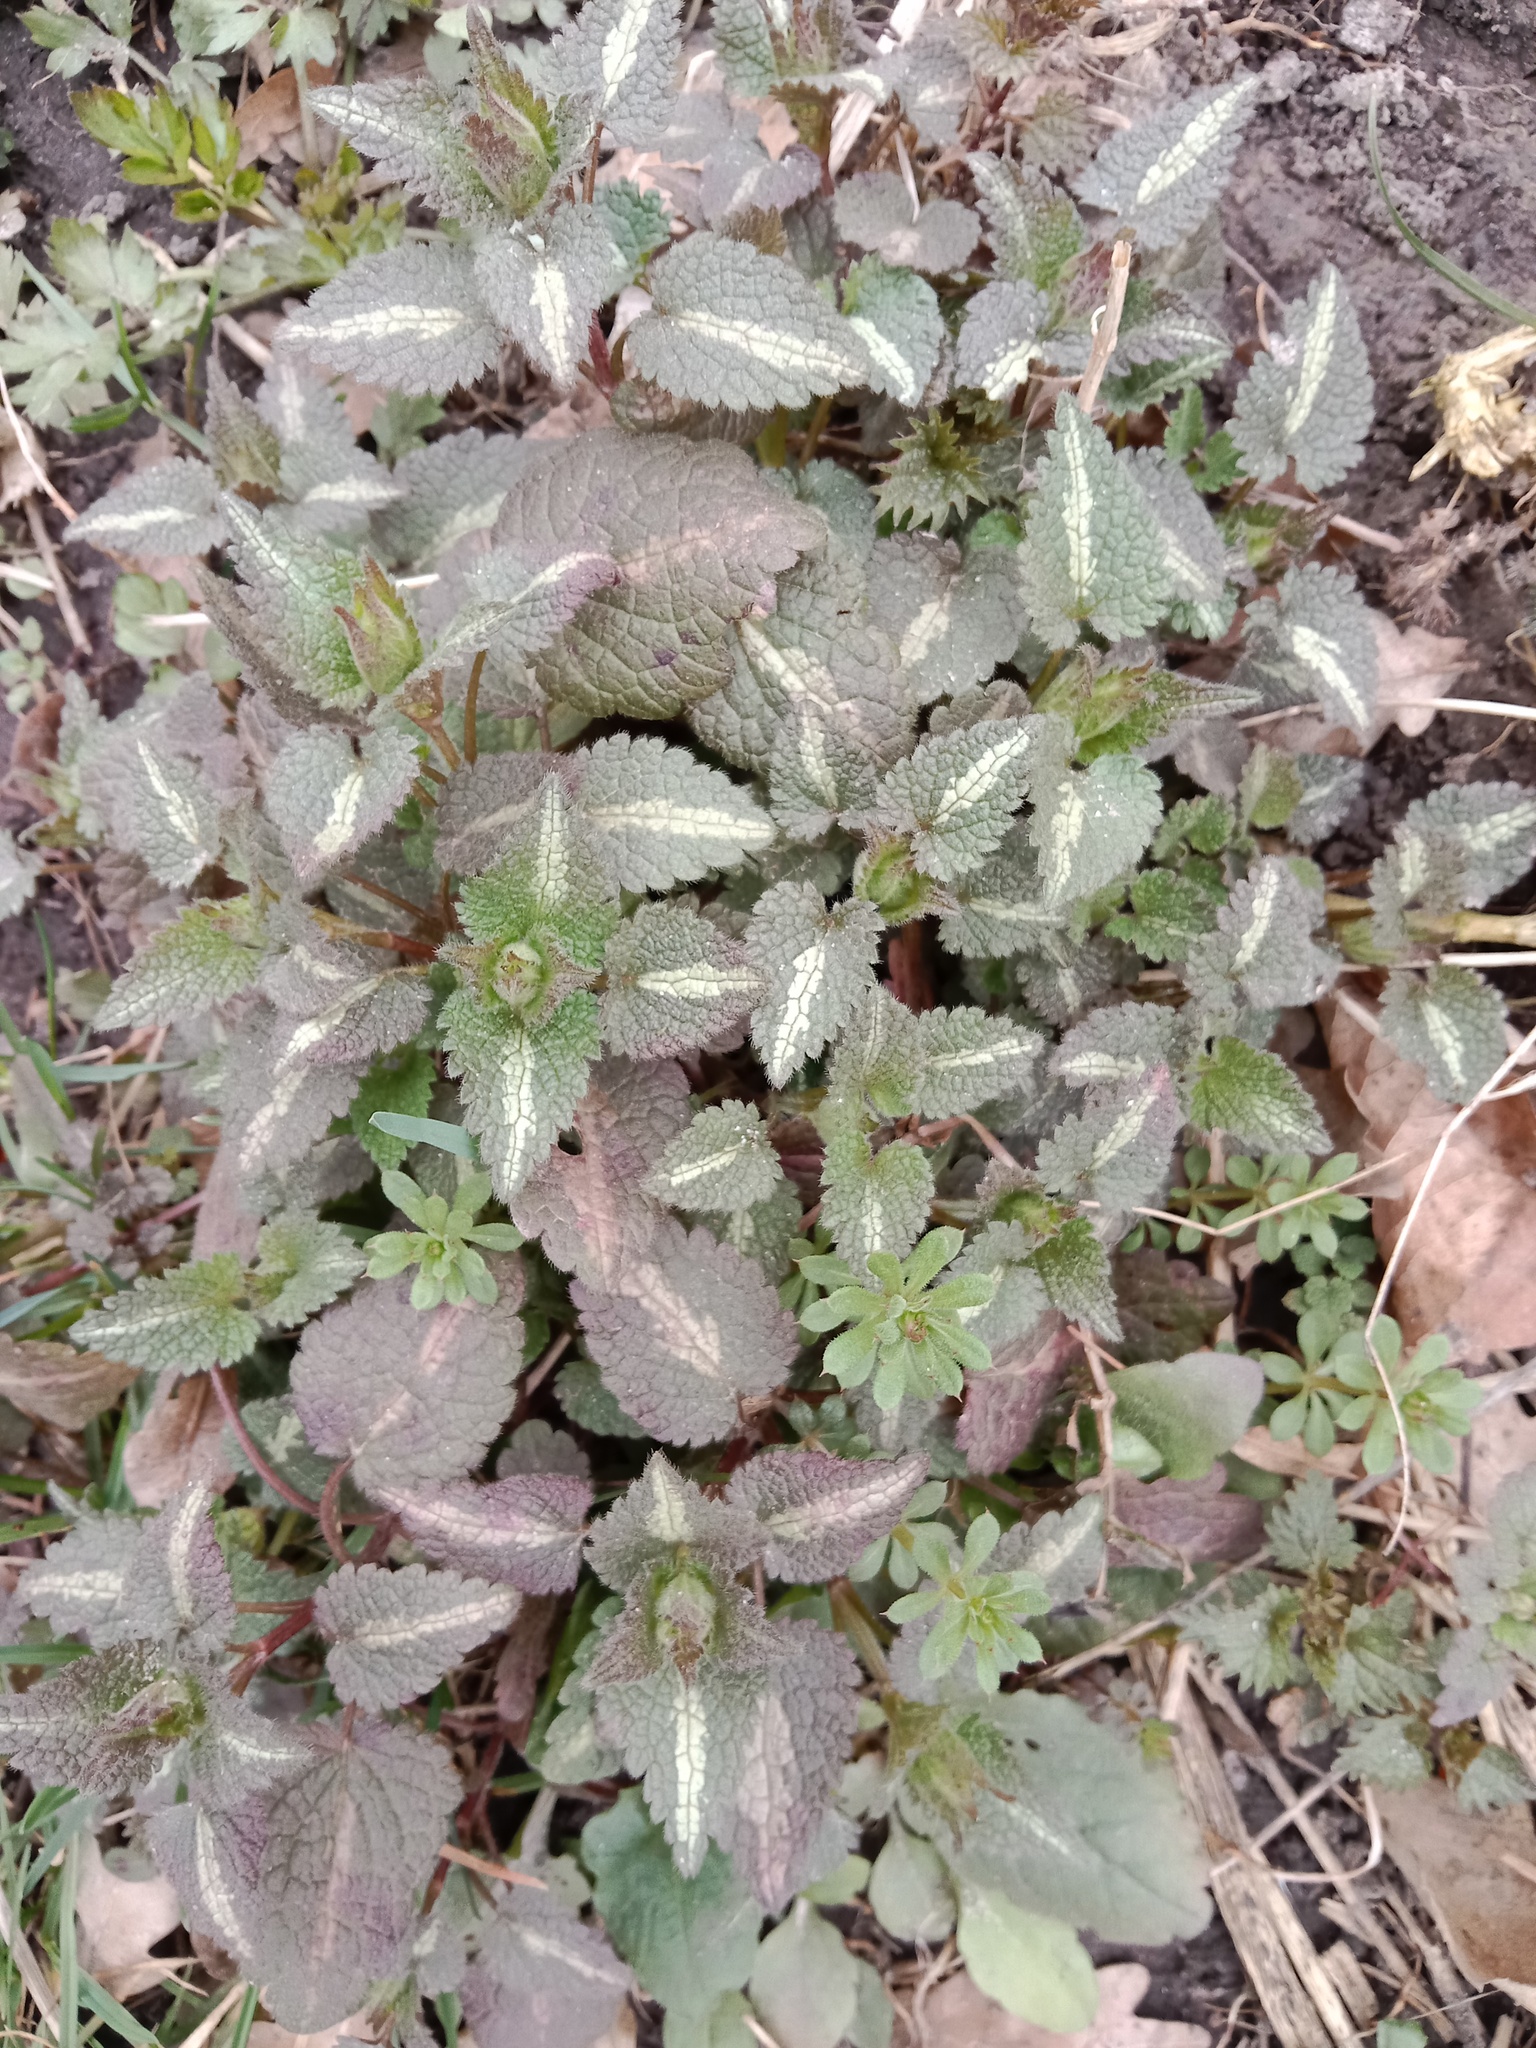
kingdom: Plantae
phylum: Tracheophyta
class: Magnoliopsida
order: Lamiales
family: Lamiaceae
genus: Lamium
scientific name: Lamium maculatum
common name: Spotted dead-nettle
